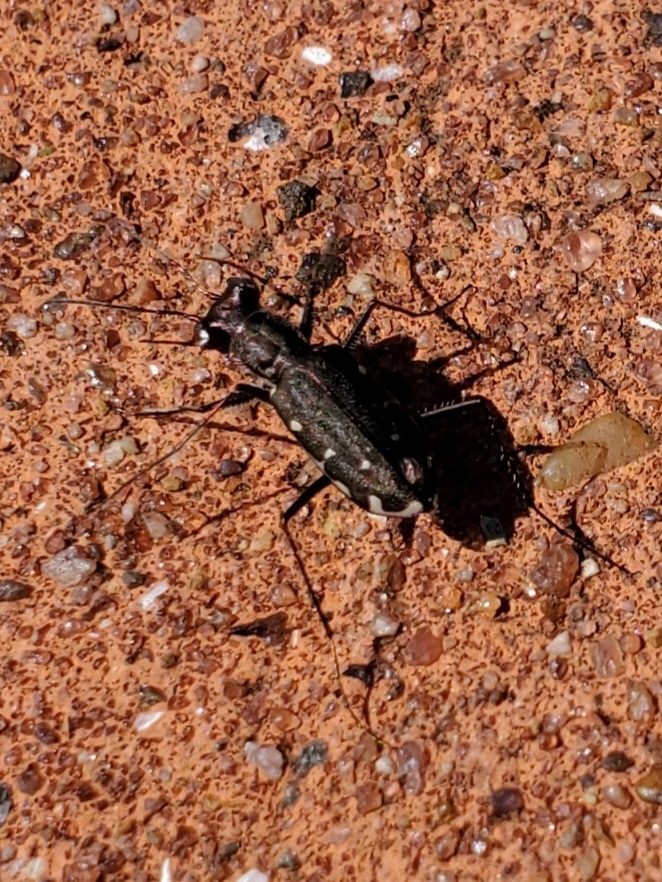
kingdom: Animalia
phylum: Arthropoda
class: Insecta
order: Coleoptera
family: Carabidae
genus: Cicindela
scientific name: Cicindela punctulata
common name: Punctured tiger beetle
